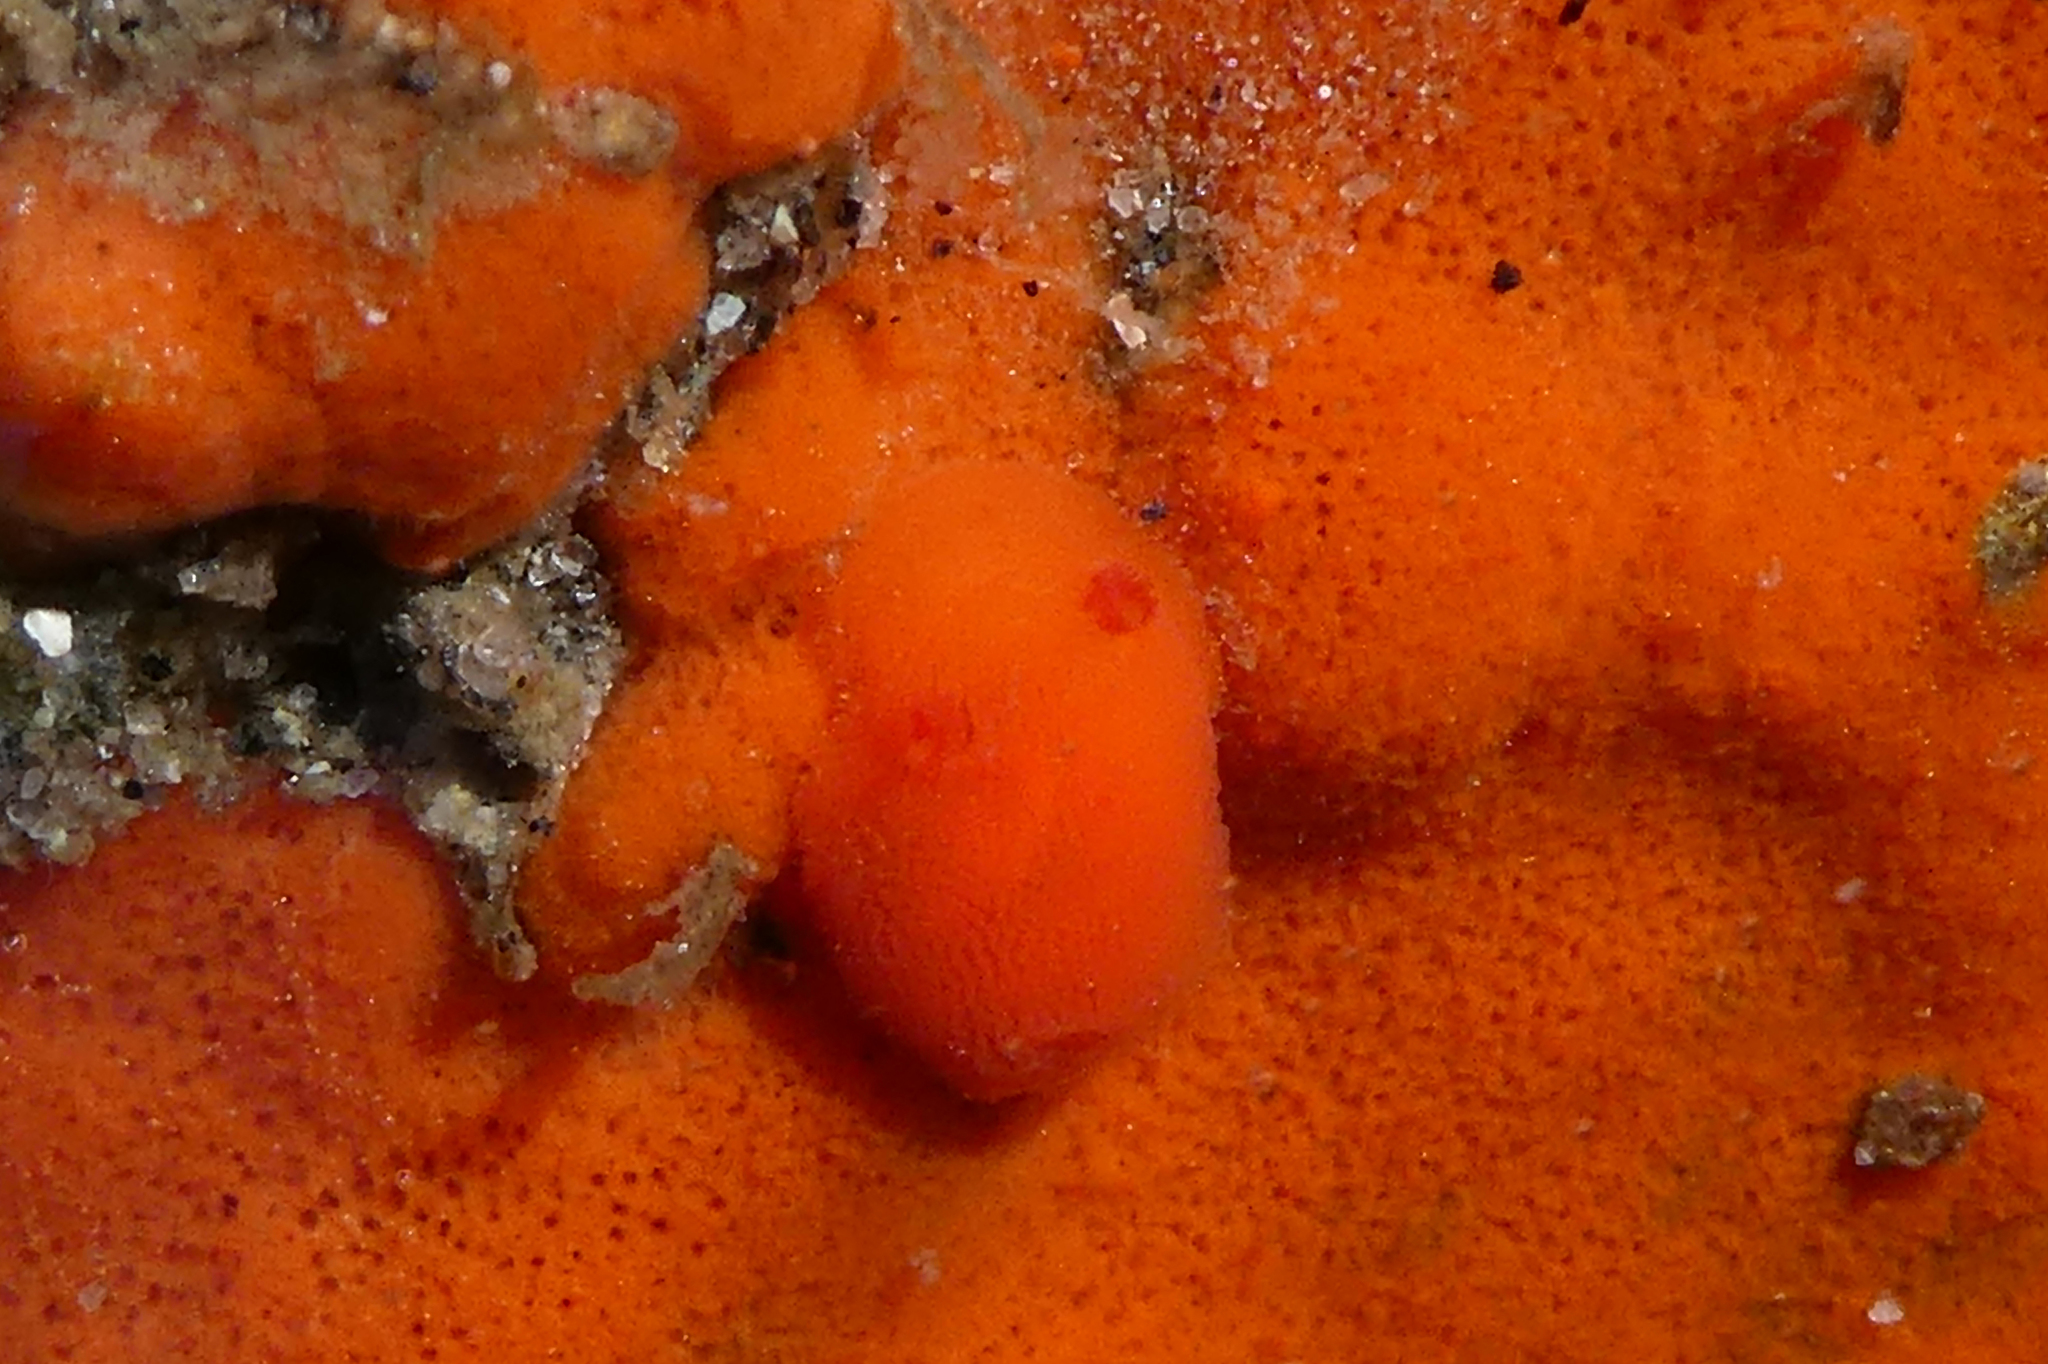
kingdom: Animalia
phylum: Mollusca
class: Gastropoda
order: Nudibranchia
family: Discodorididae
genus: Rostanga
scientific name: Rostanga pulchra
